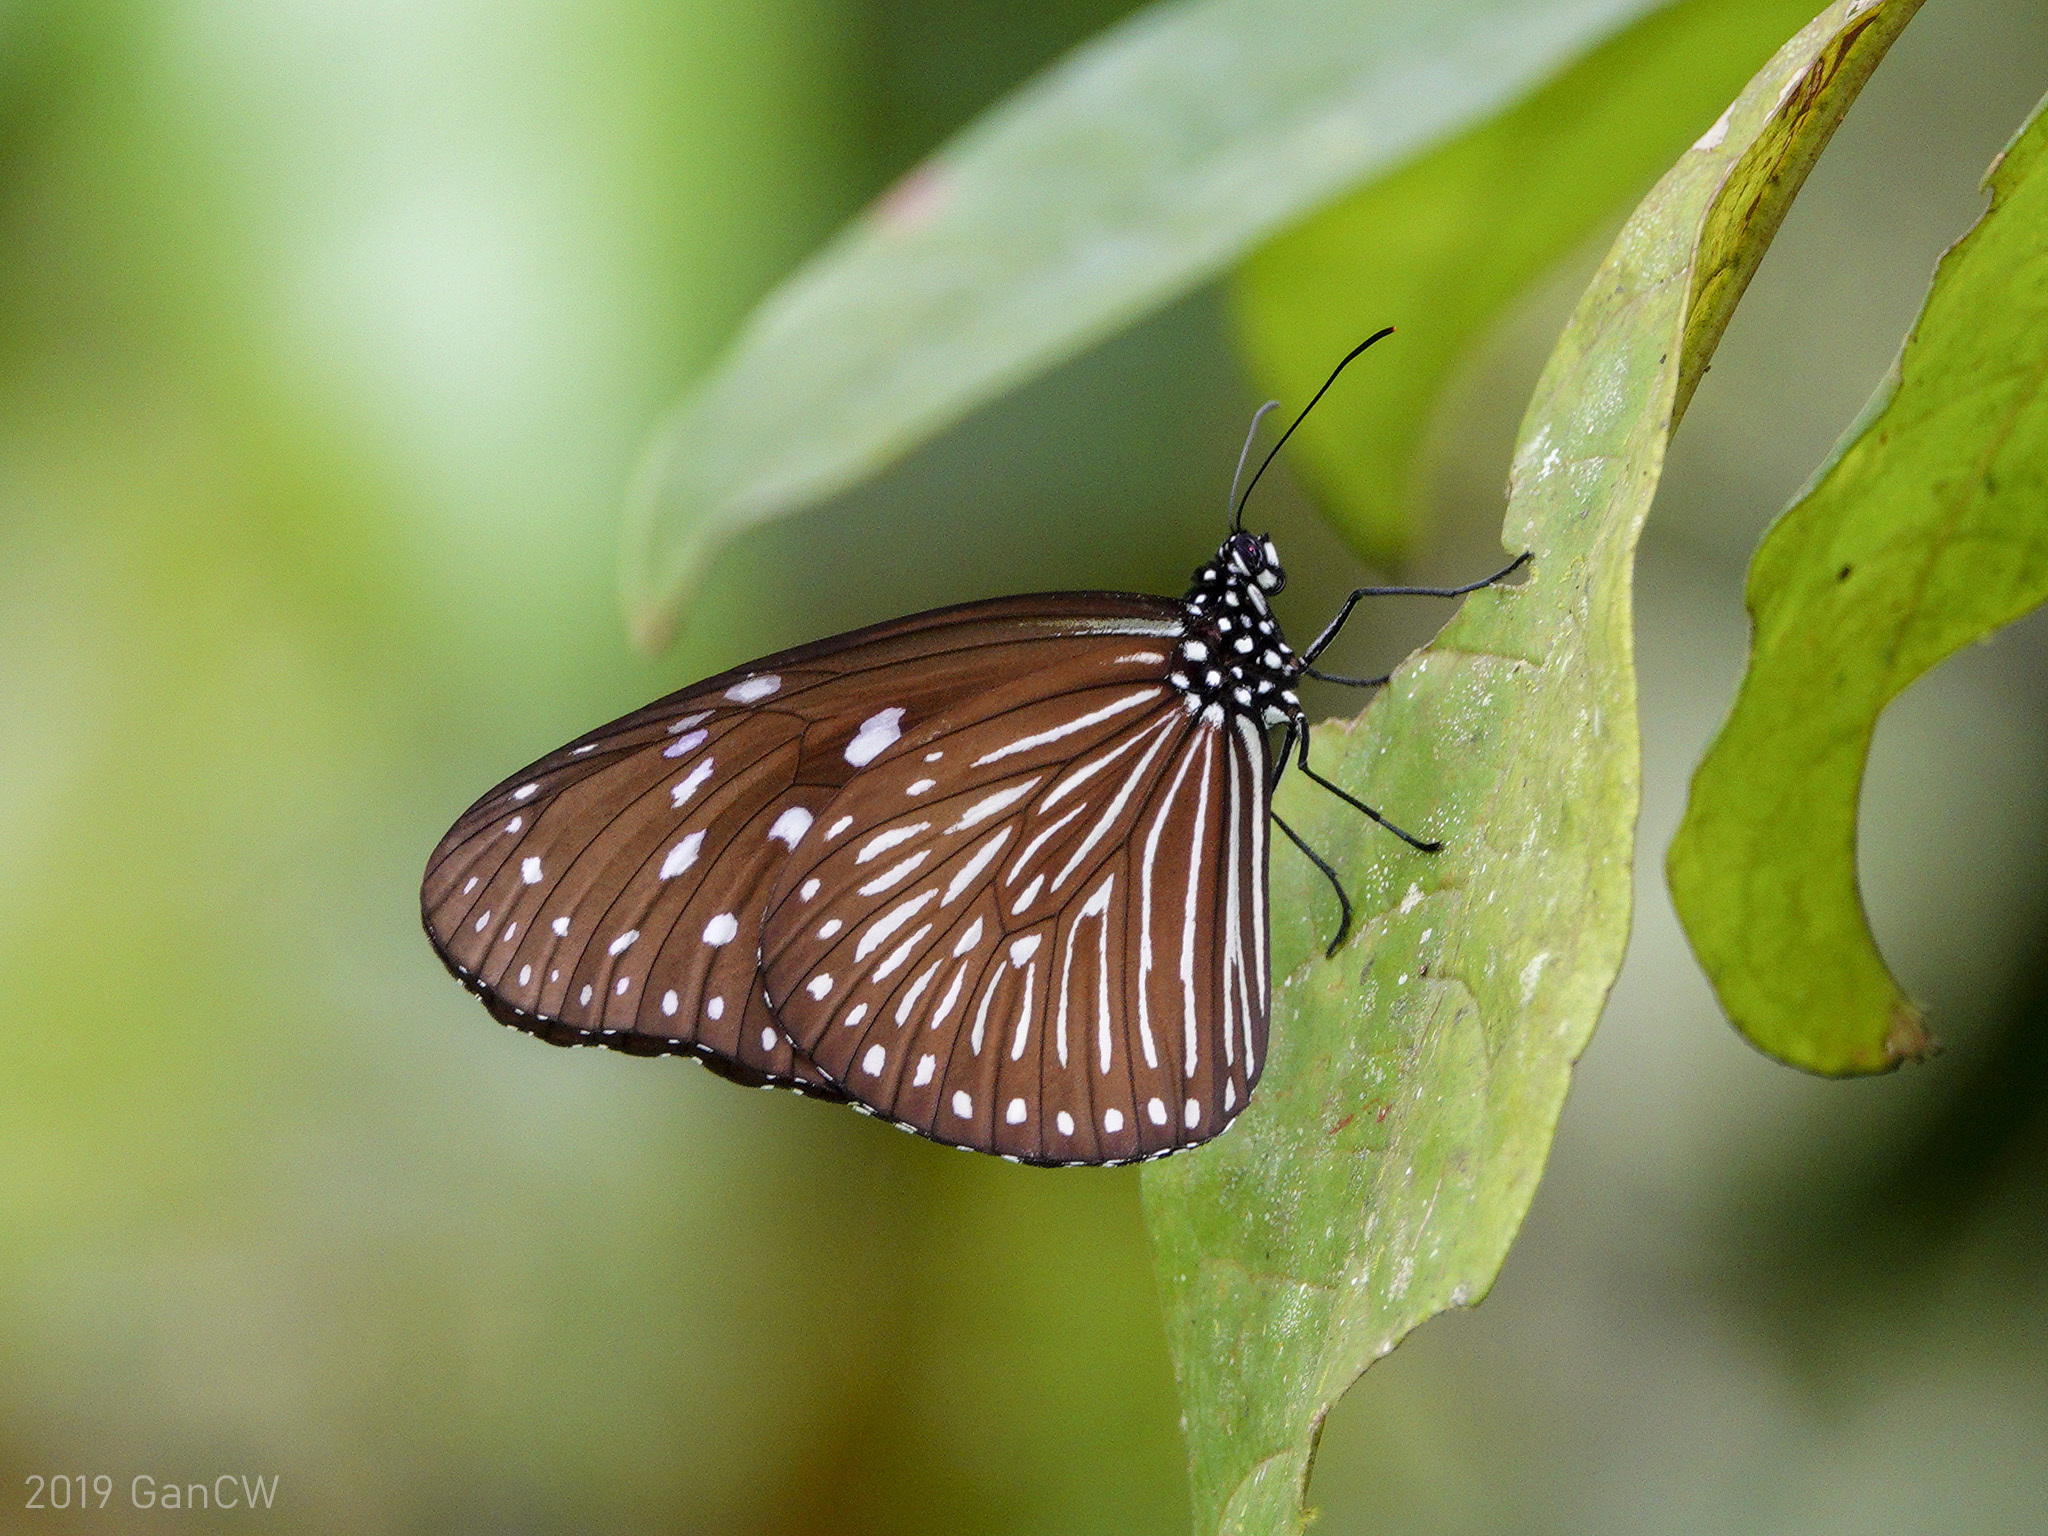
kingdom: Animalia
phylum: Arthropoda
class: Insecta
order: Lepidoptera
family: Nymphalidae
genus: Euploea
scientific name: Euploea mulciber
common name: Striped blue crow butterfly
